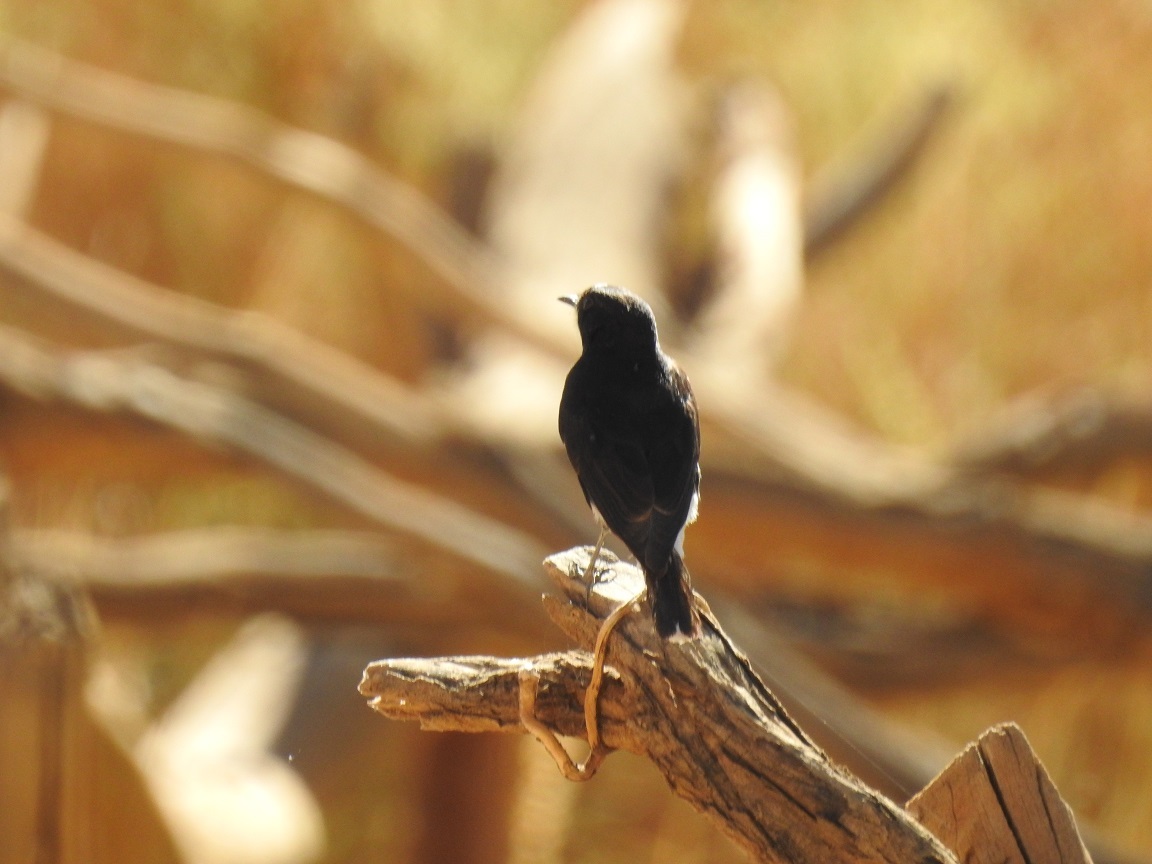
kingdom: Animalia
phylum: Chordata
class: Aves
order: Passeriformes
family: Muscicapidae
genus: Oenanthe
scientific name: Oenanthe leucopyga
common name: White-crowned wheatear
